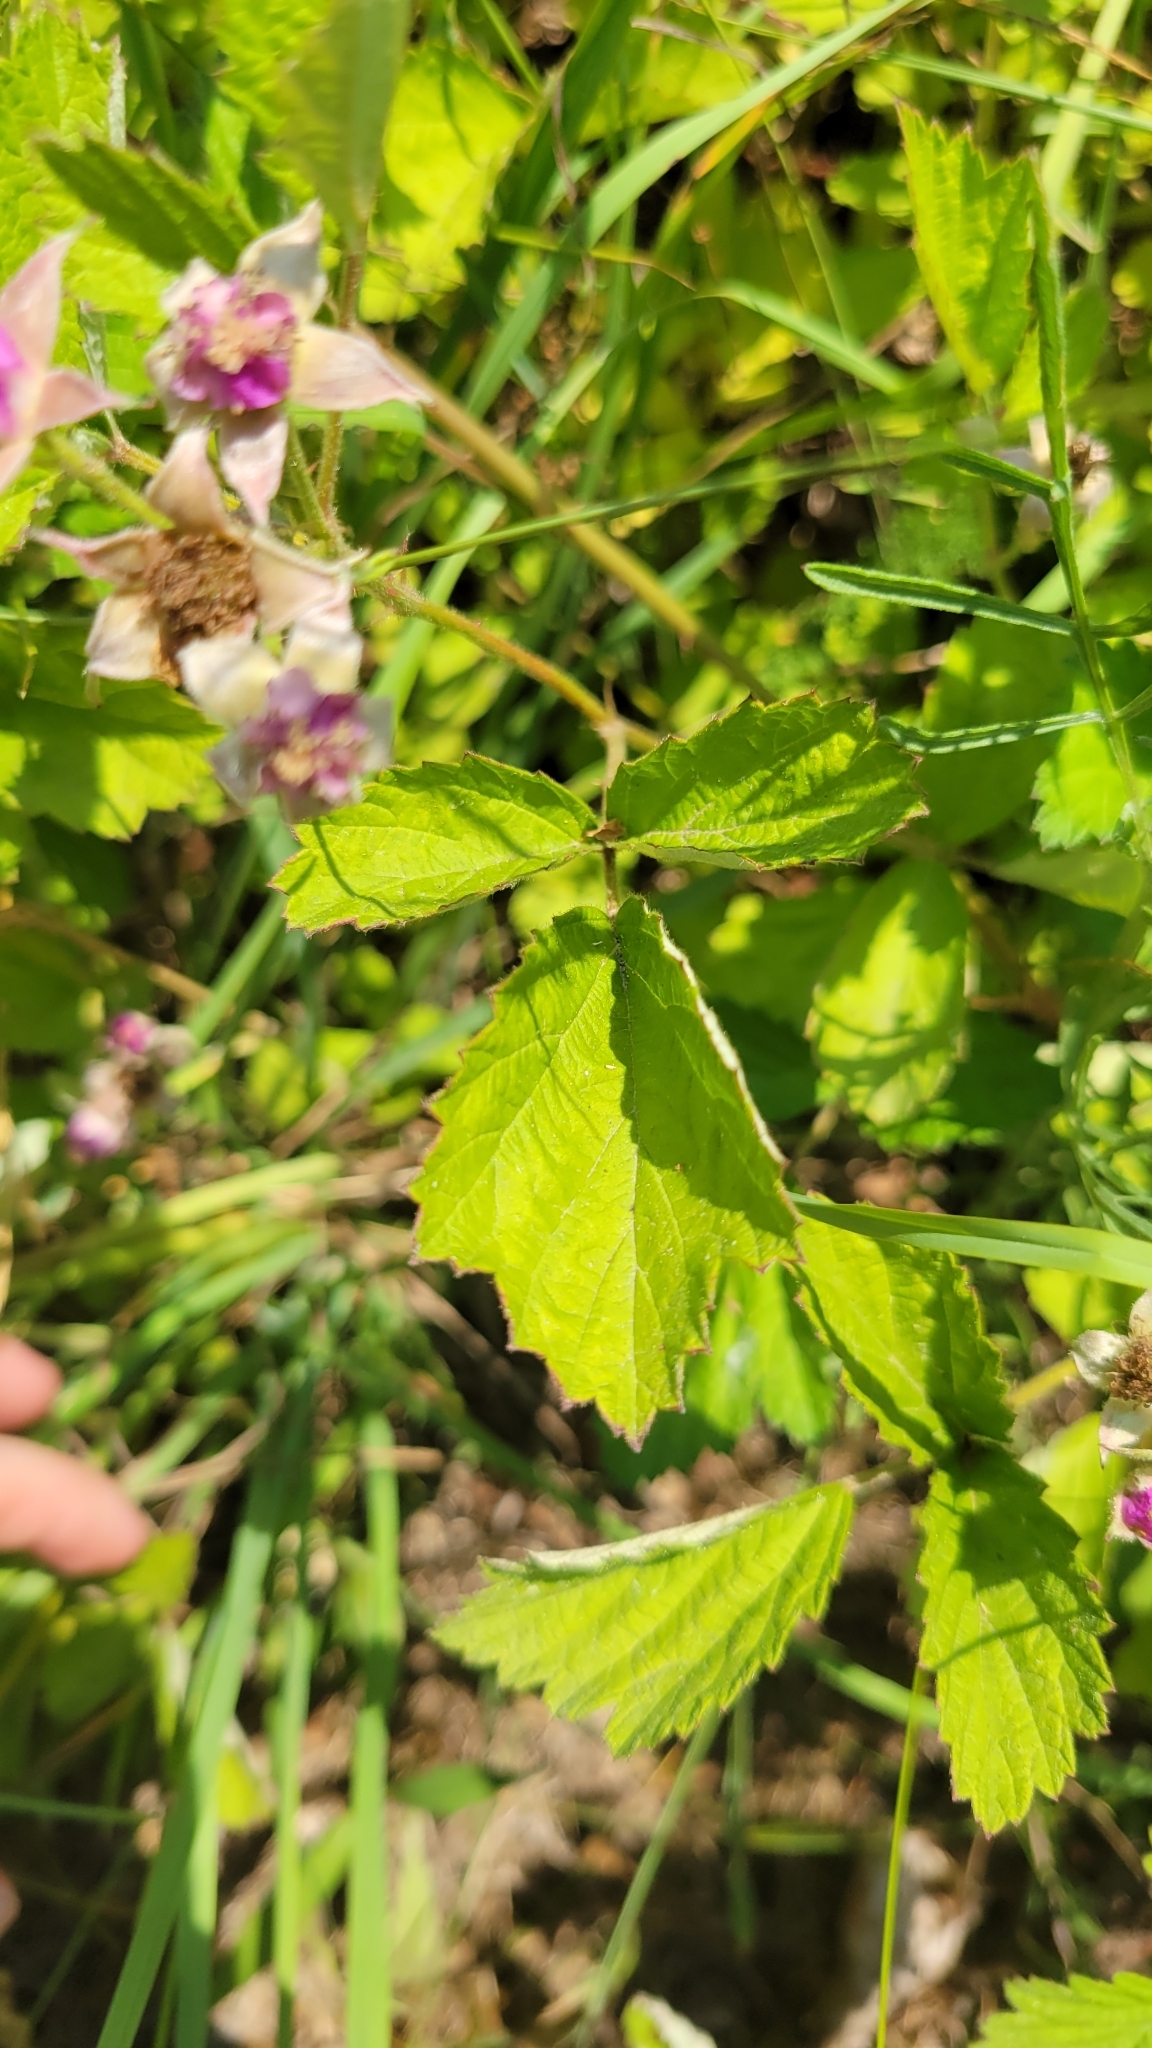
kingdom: Plantae
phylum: Tracheophyta
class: Magnoliopsida
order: Rosales
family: Rosaceae
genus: Rubus
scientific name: Rubus parvifolius
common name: Threeleaf blackberry
